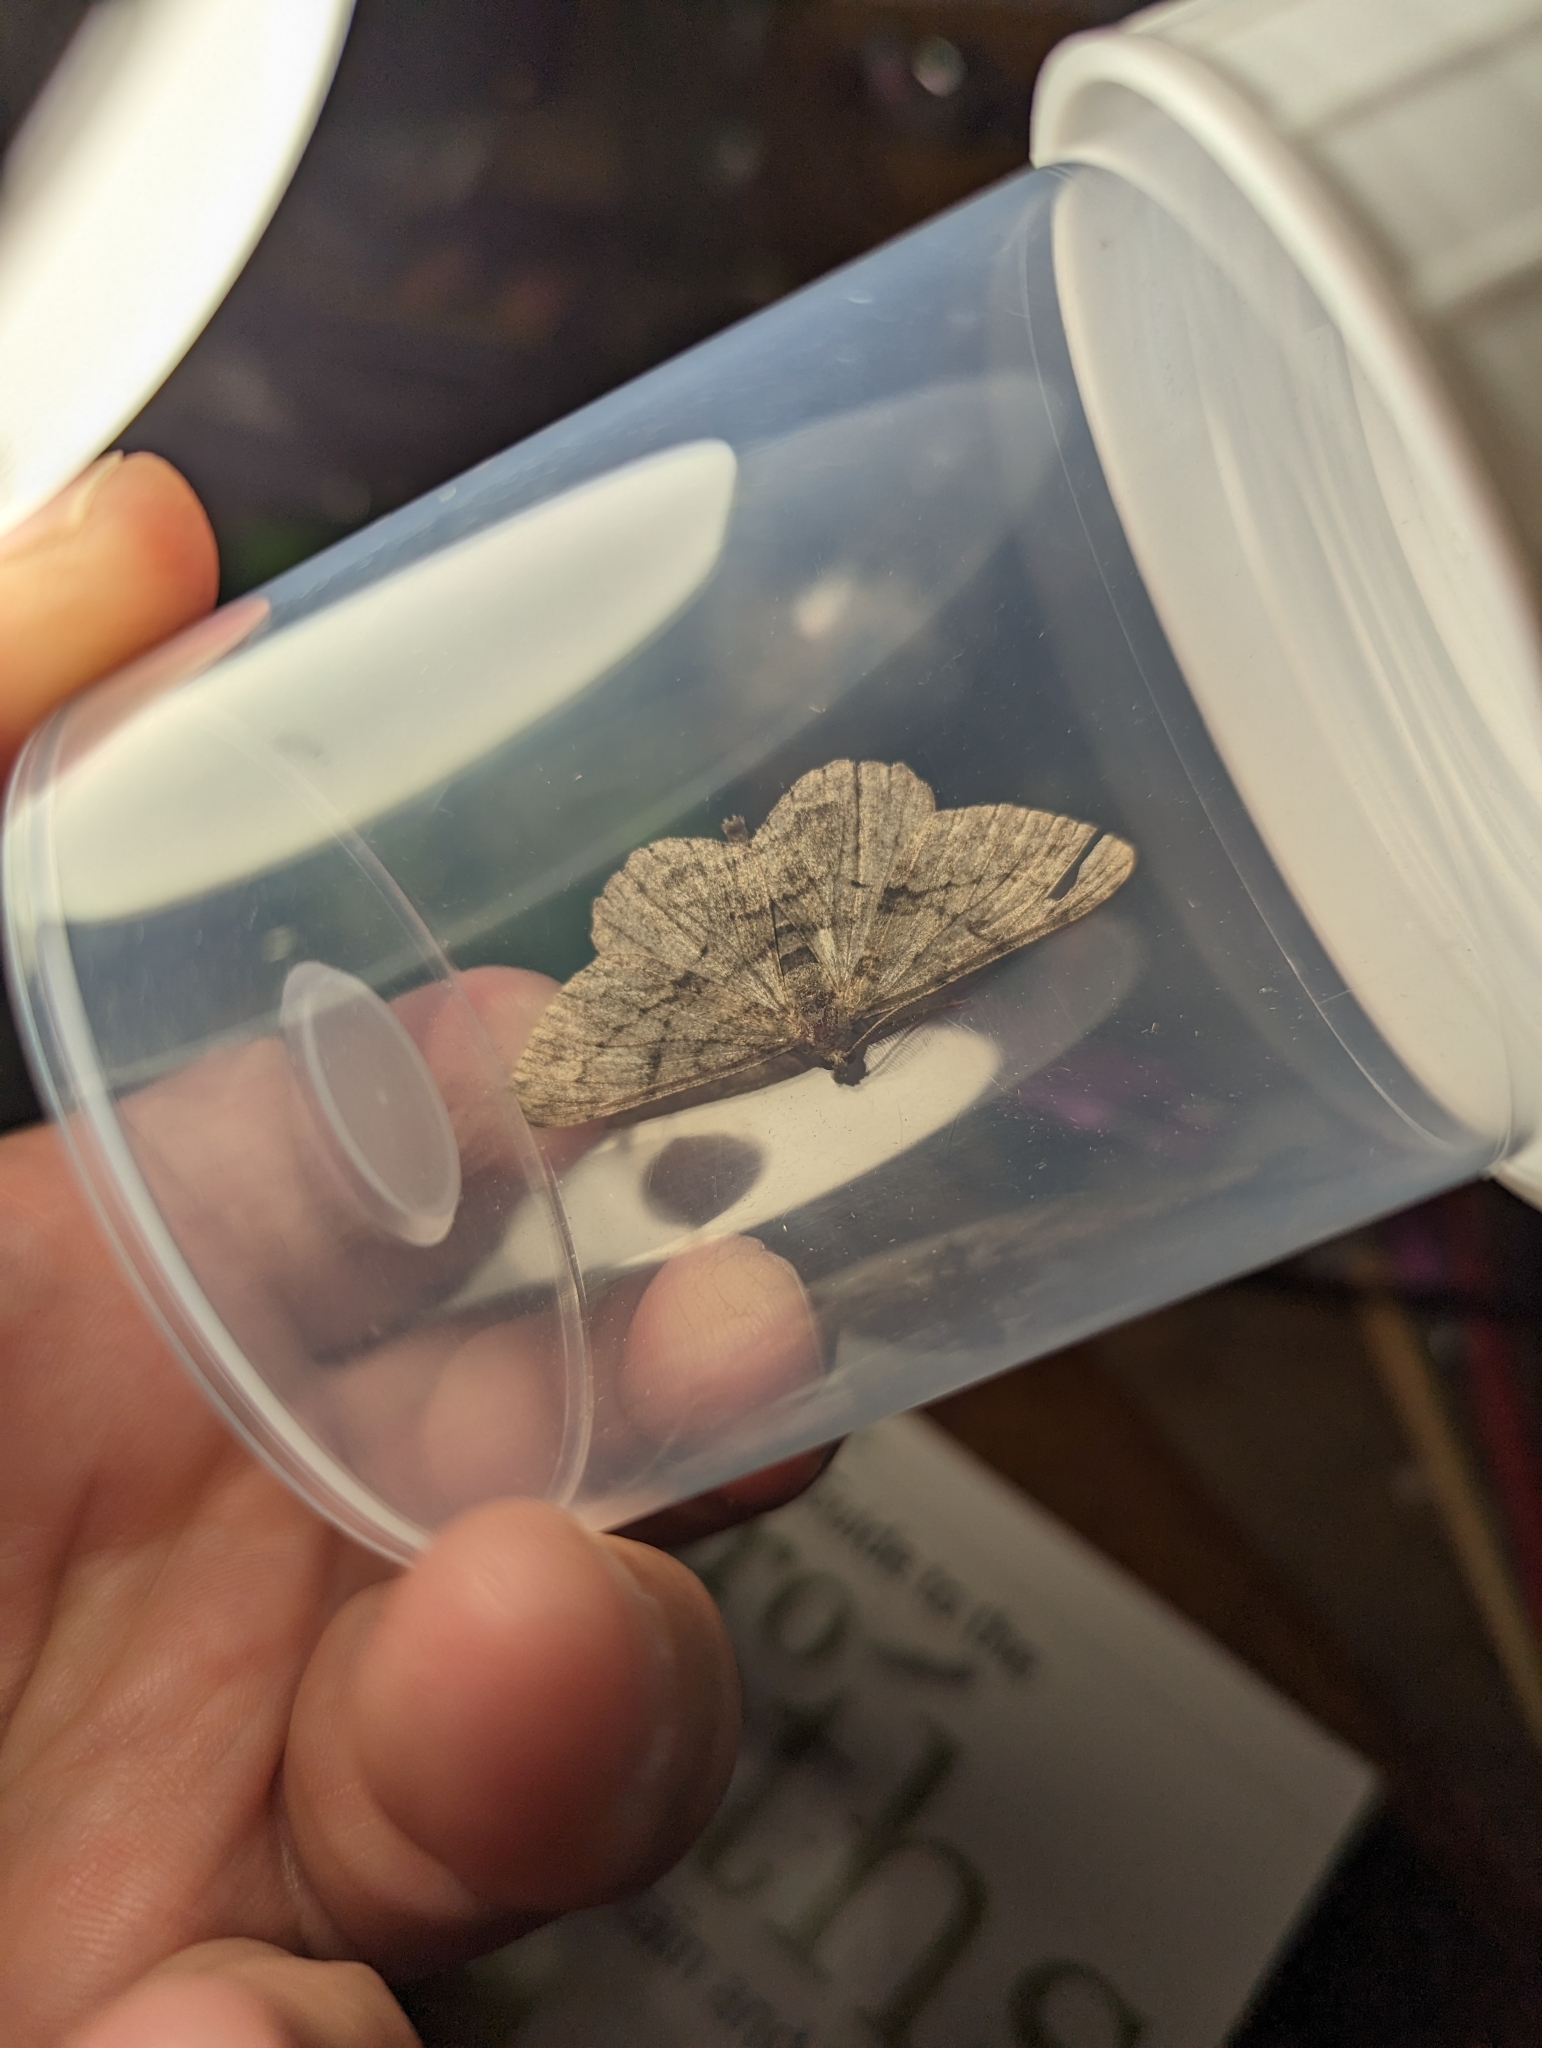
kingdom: Animalia
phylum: Arthropoda
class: Insecta
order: Lepidoptera
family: Geometridae
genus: Peribatodes
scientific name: Peribatodes rhomboidaria
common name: Willow beauty
